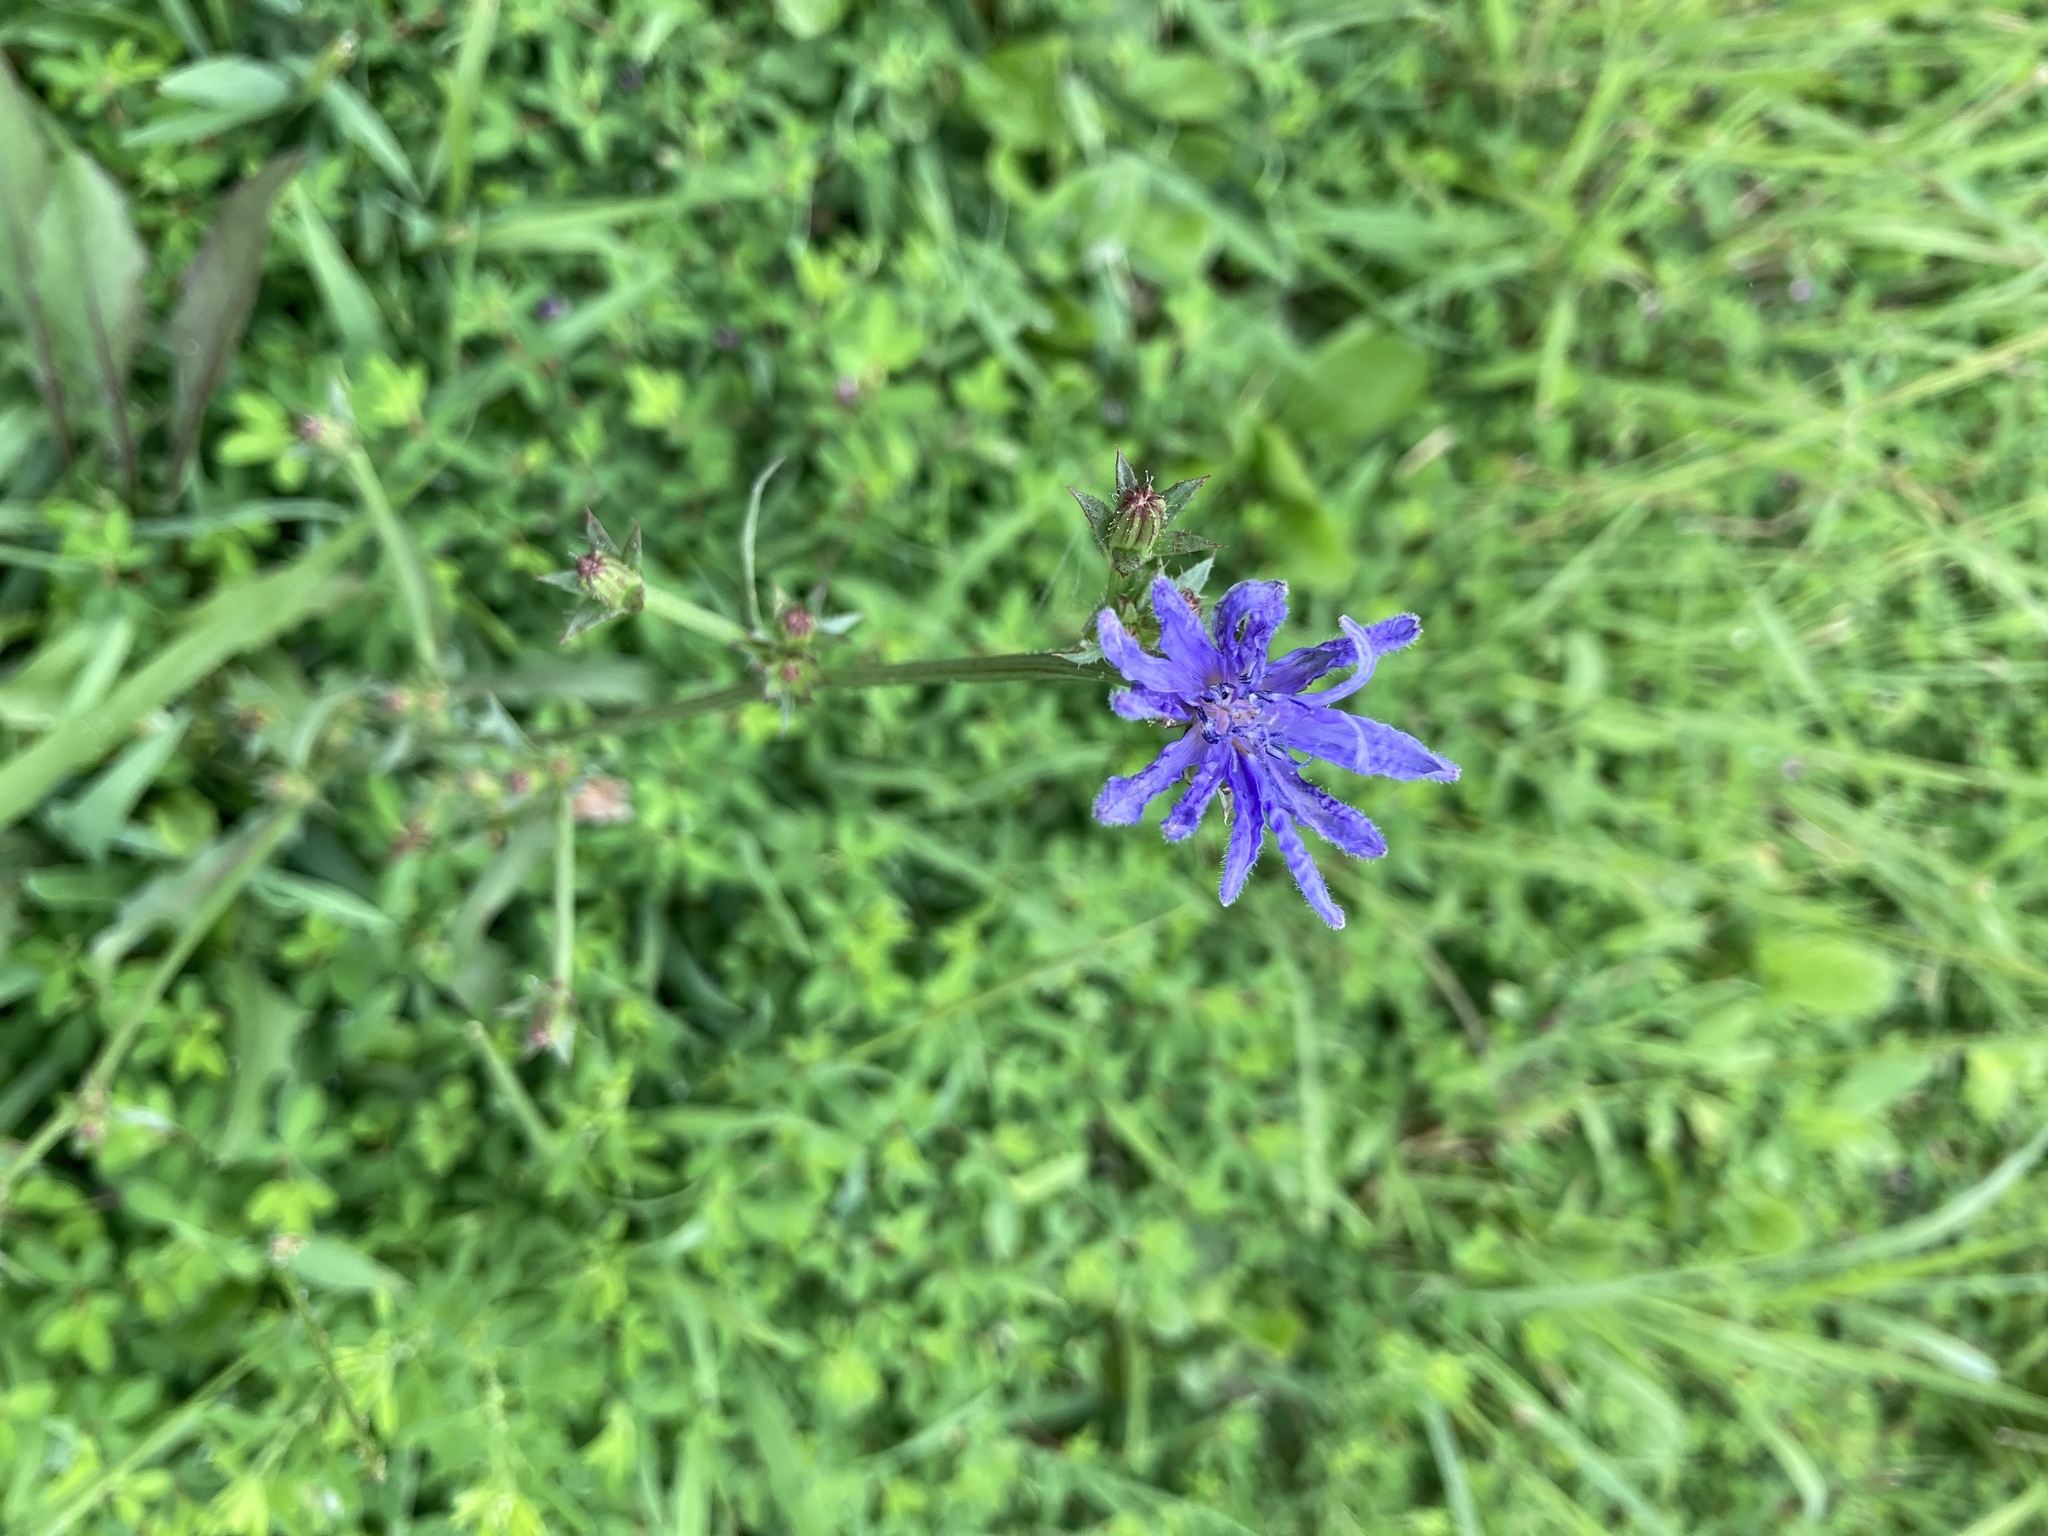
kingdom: Plantae
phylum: Tracheophyta
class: Magnoliopsida
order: Asterales
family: Asteraceae
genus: Cichorium
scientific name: Cichorium intybus
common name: Chicory
